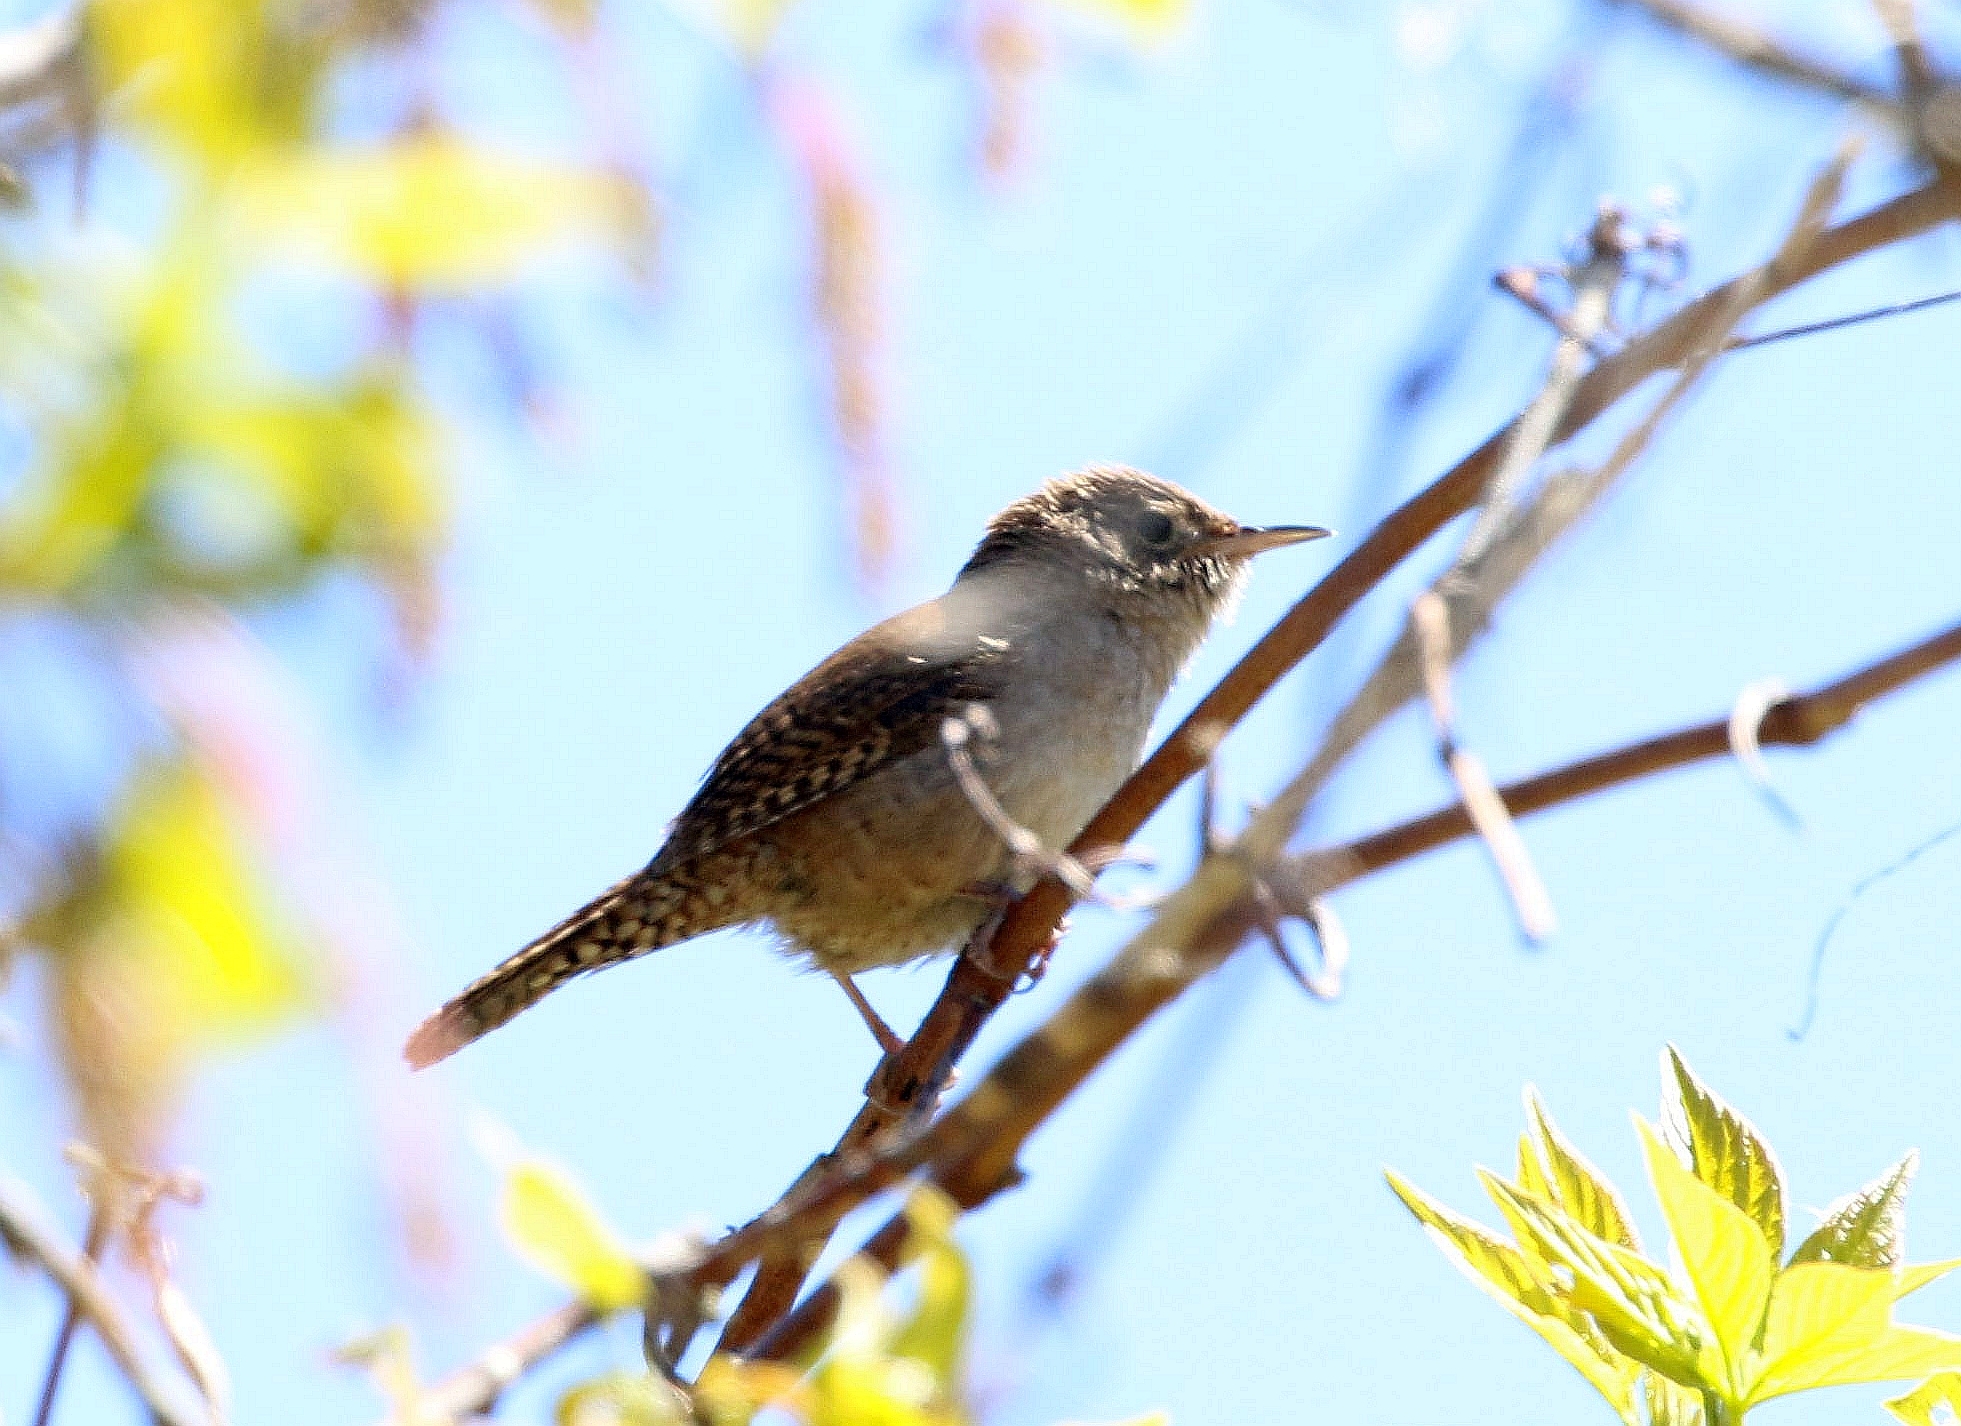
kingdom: Animalia
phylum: Chordata
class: Aves
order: Passeriformes
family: Troglodytidae
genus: Troglodytes
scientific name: Troglodytes aedon
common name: House wren
